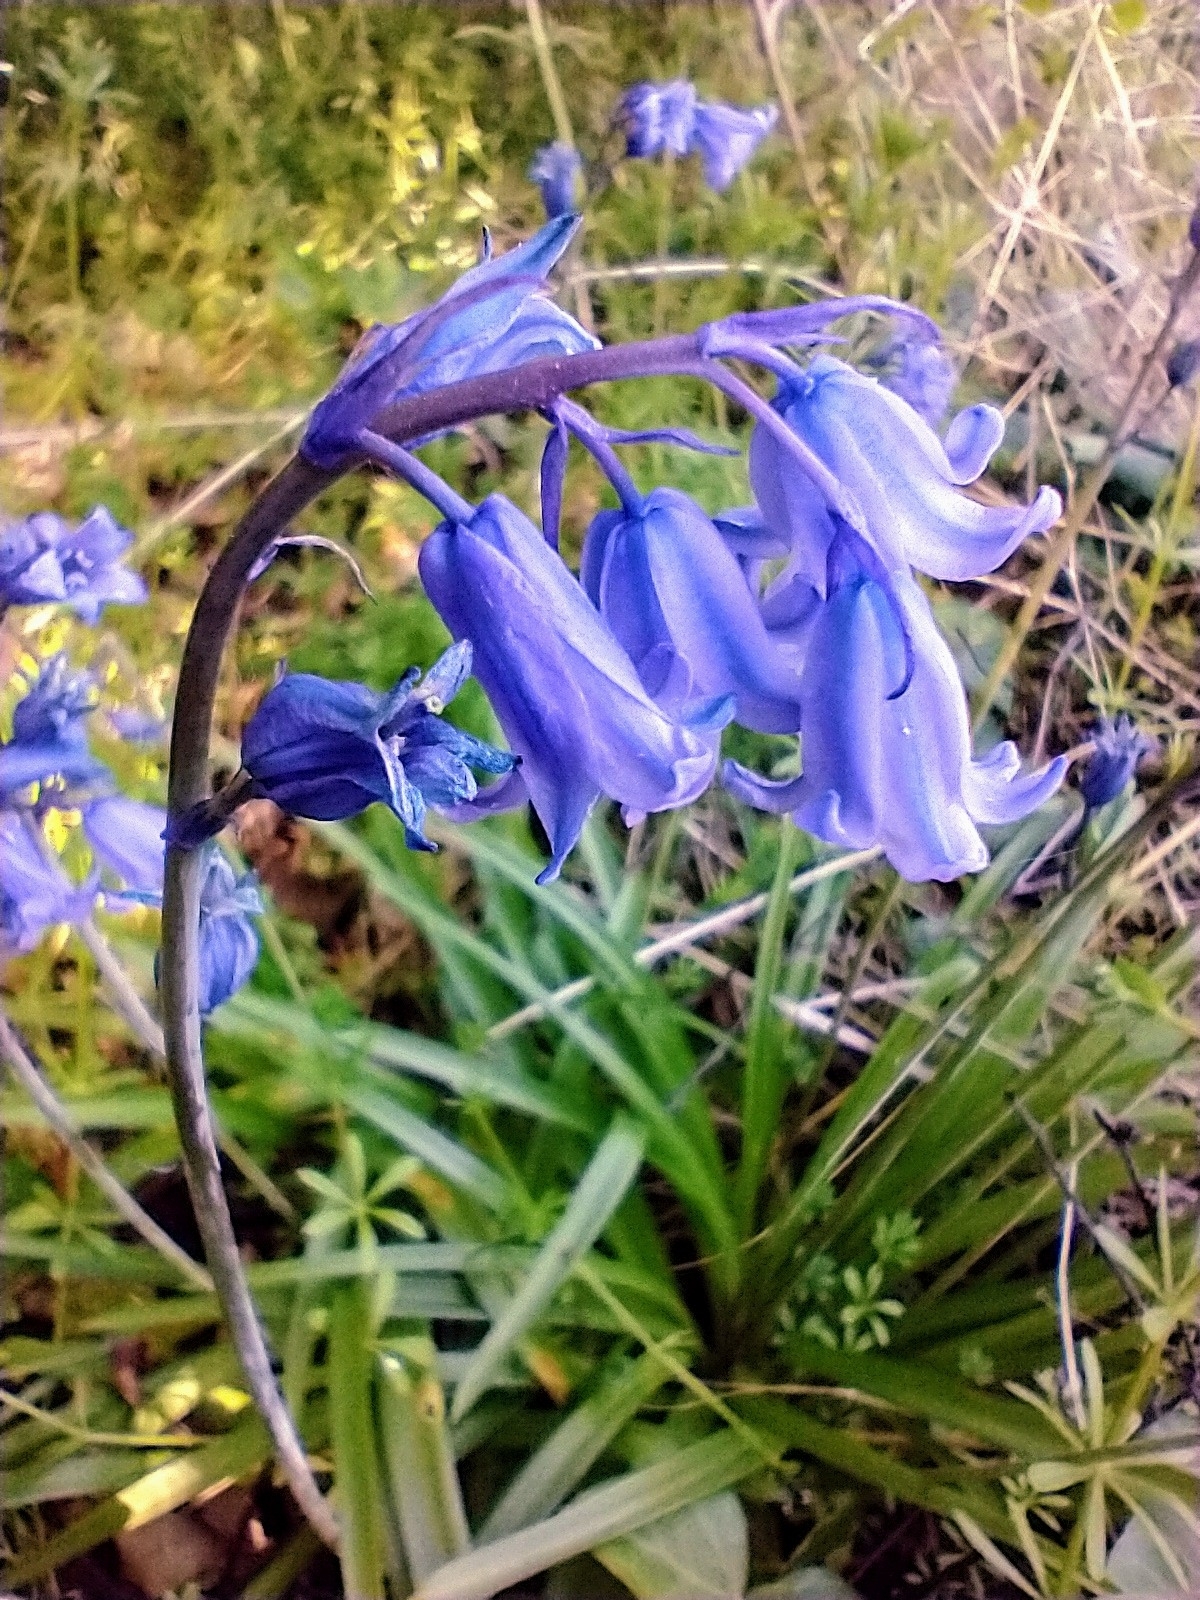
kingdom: Plantae
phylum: Tracheophyta
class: Liliopsida
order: Asparagales
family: Asparagaceae
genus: Hyacinthoides
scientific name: Hyacinthoides non-scripta
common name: Bluebell
